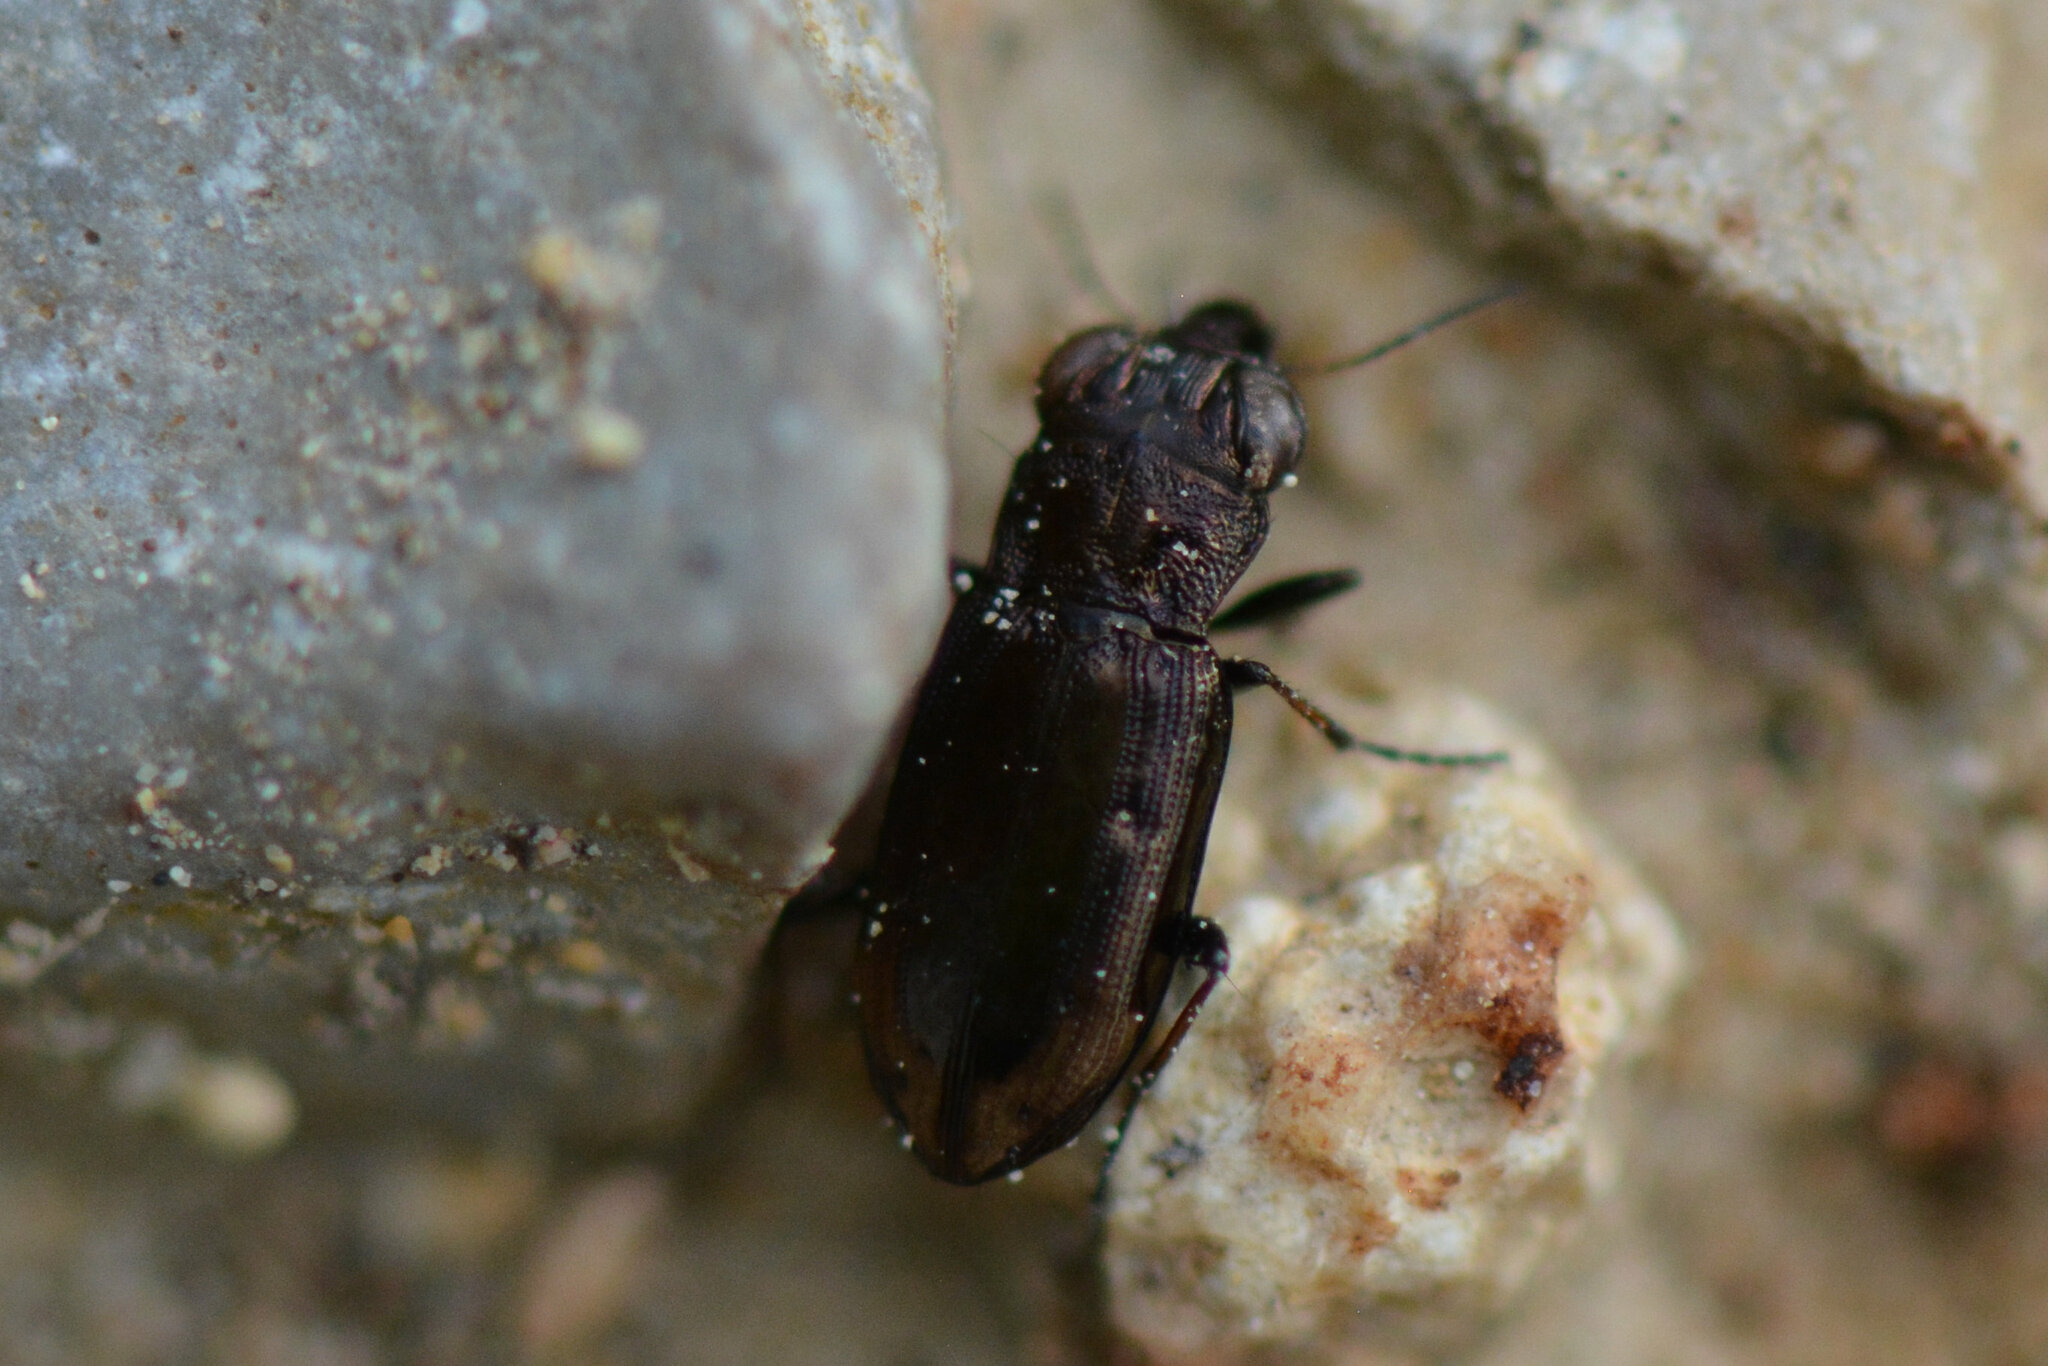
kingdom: Animalia
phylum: Arthropoda
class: Insecta
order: Coleoptera
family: Carabidae
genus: Notiophilus
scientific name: Notiophilus quadripunctatus
